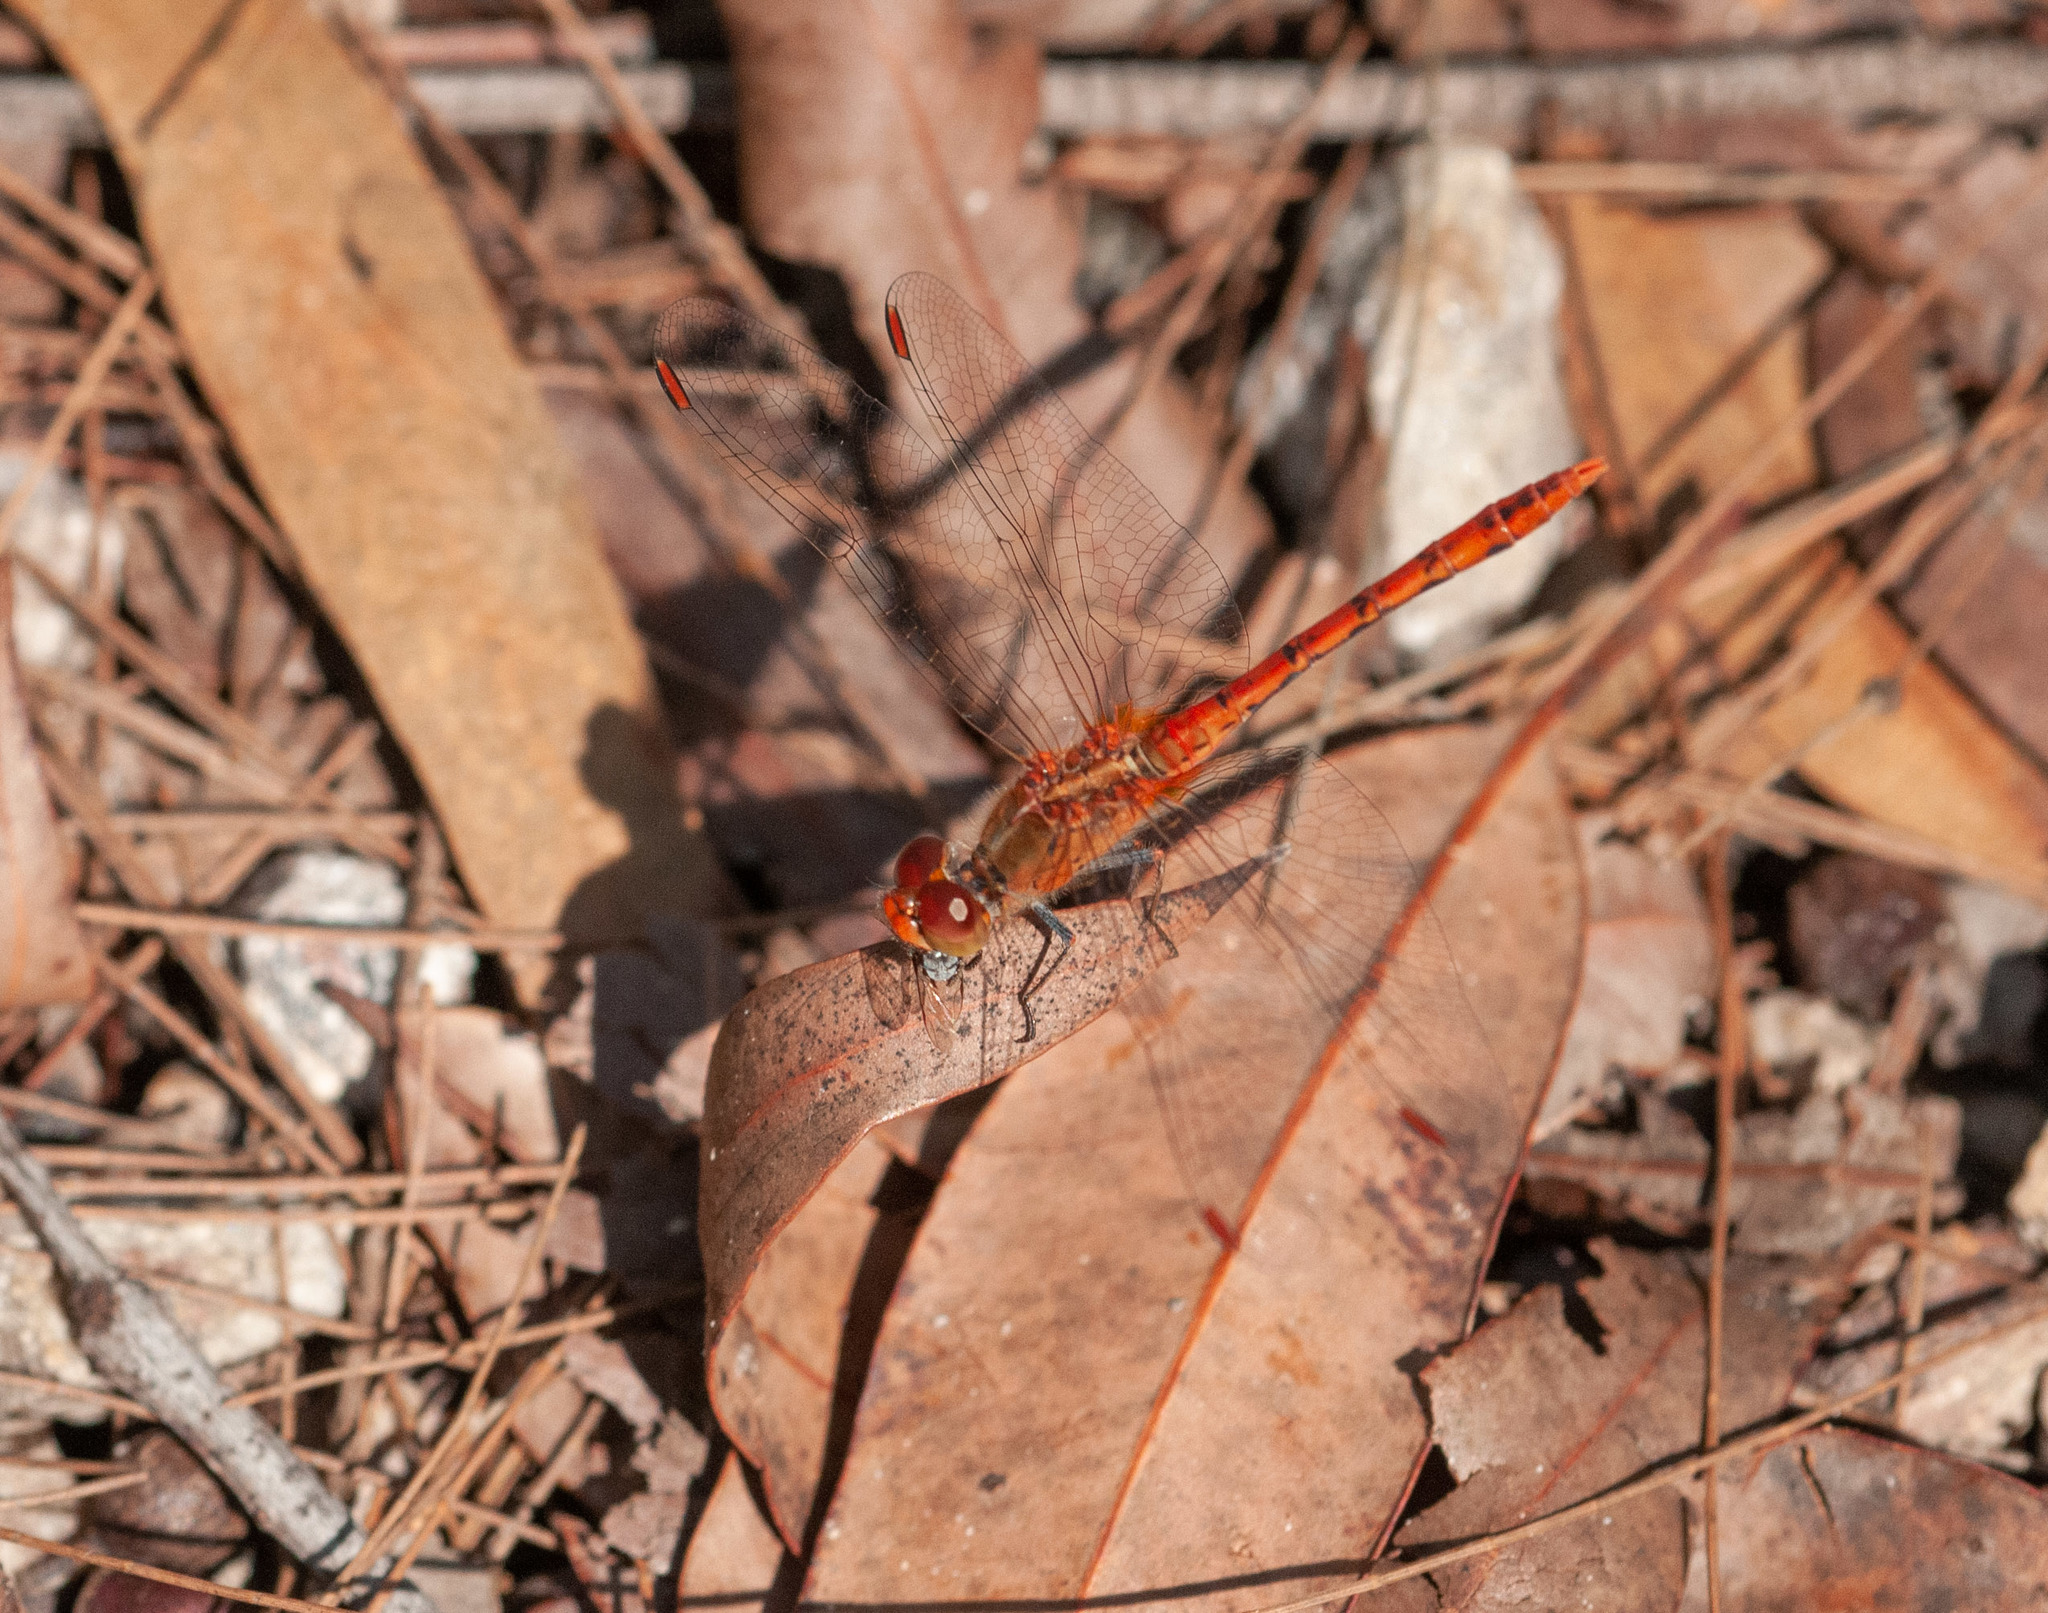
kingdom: Animalia
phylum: Arthropoda
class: Insecta
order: Odonata
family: Libellulidae
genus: Diplacodes
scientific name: Diplacodes bipunctata
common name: Red percher dragonfly
